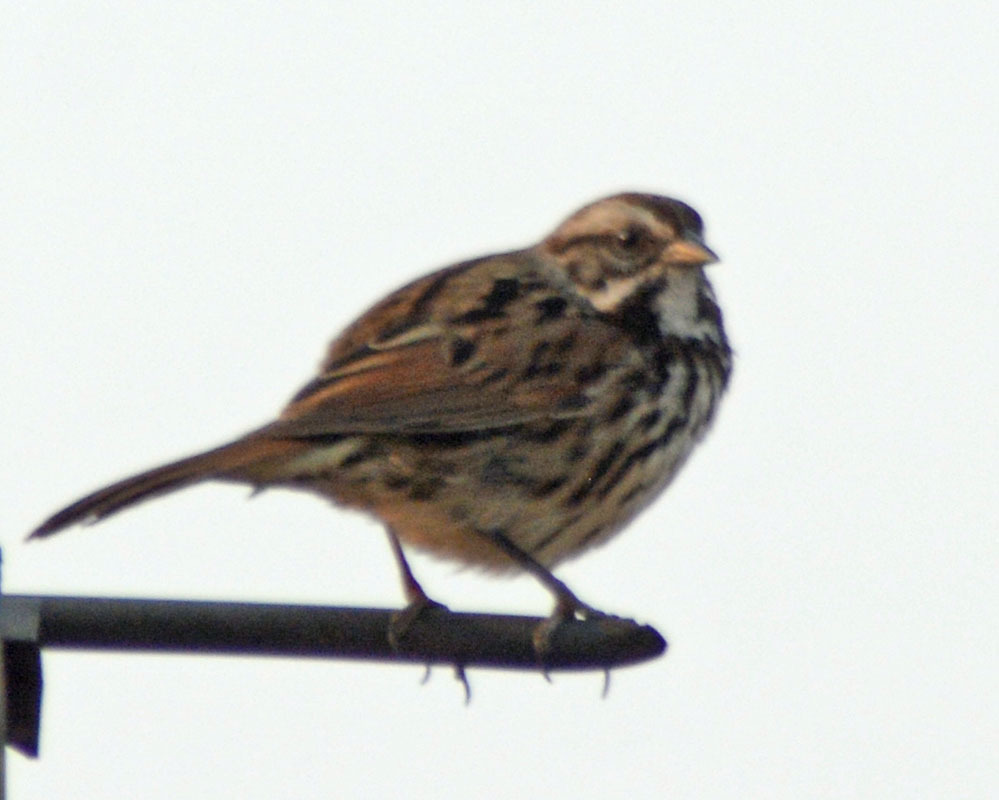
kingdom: Animalia
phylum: Chordata
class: Aves
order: Passeriformes
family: Passerellidae
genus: Melospiza
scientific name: Melospiza melodia
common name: Song sparrow
